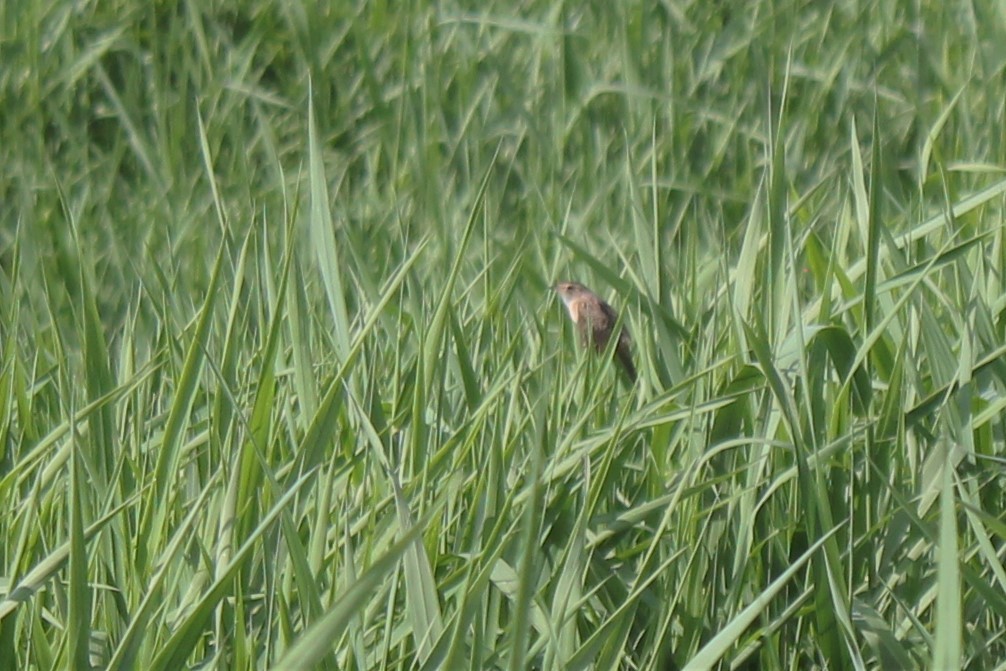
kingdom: Animalia
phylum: Chordata
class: Aves
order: Passeriformes
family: Troglodytidae
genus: Cistothorus
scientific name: Cistothorus platensis
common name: Sedge wren
